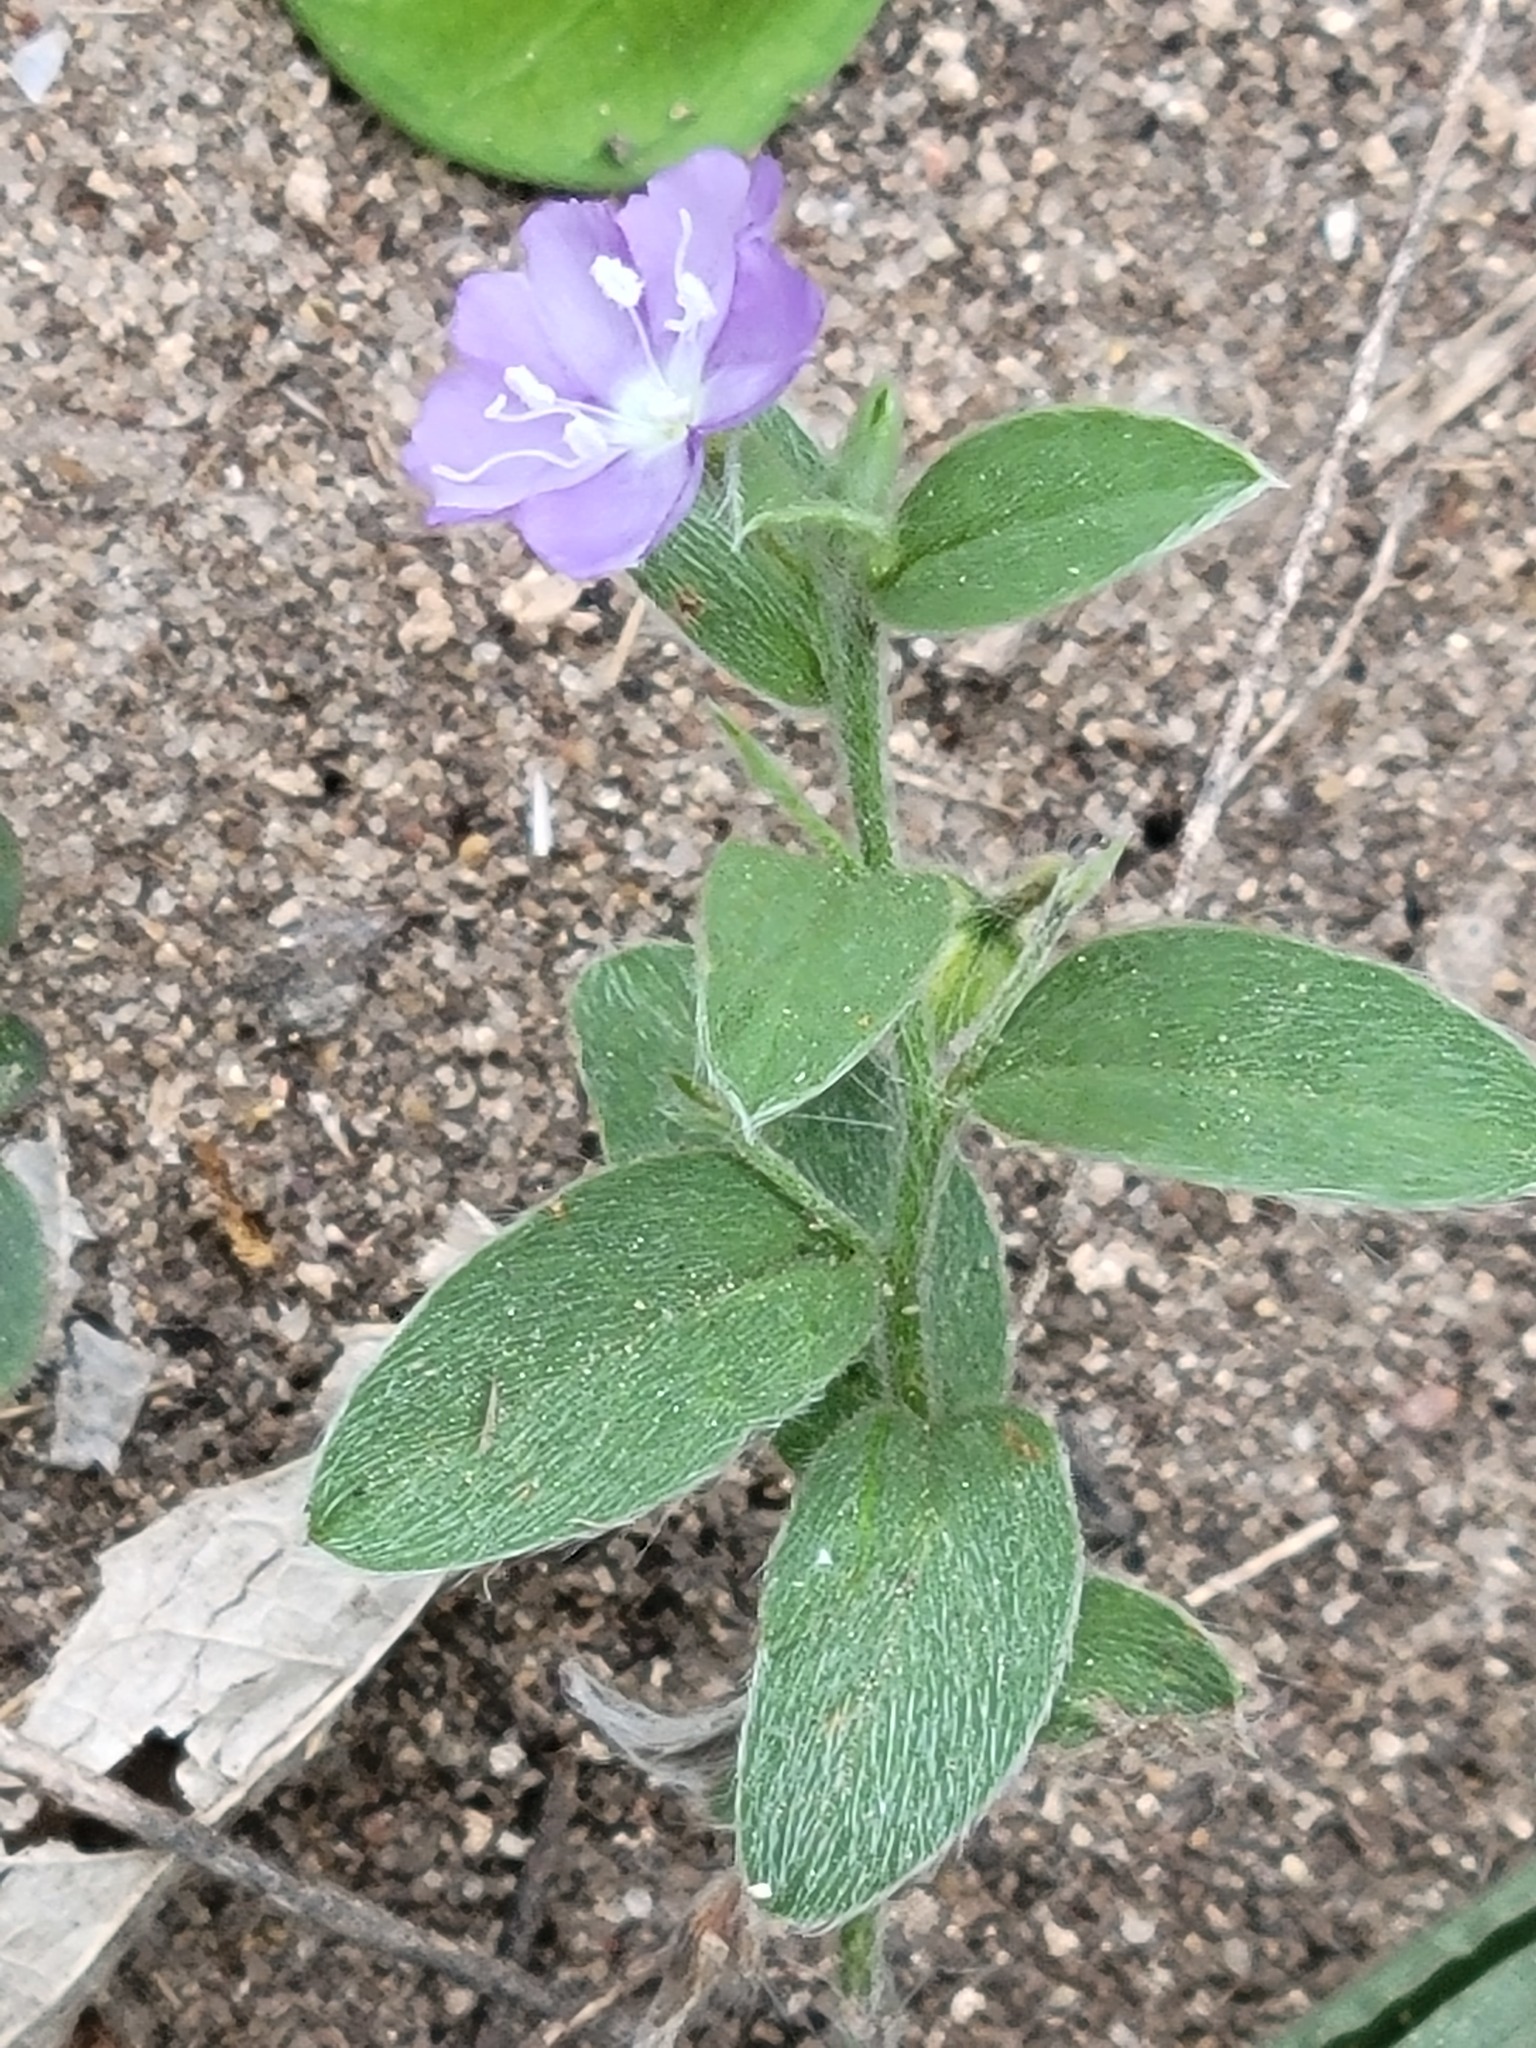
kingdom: Plantae
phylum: Tracheophyta
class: Magnoliopsida
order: Solanales
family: Convolvulaceae
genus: Evolvulus
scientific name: Evolvulus alsinoides
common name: Slender dwarf morning-glory
